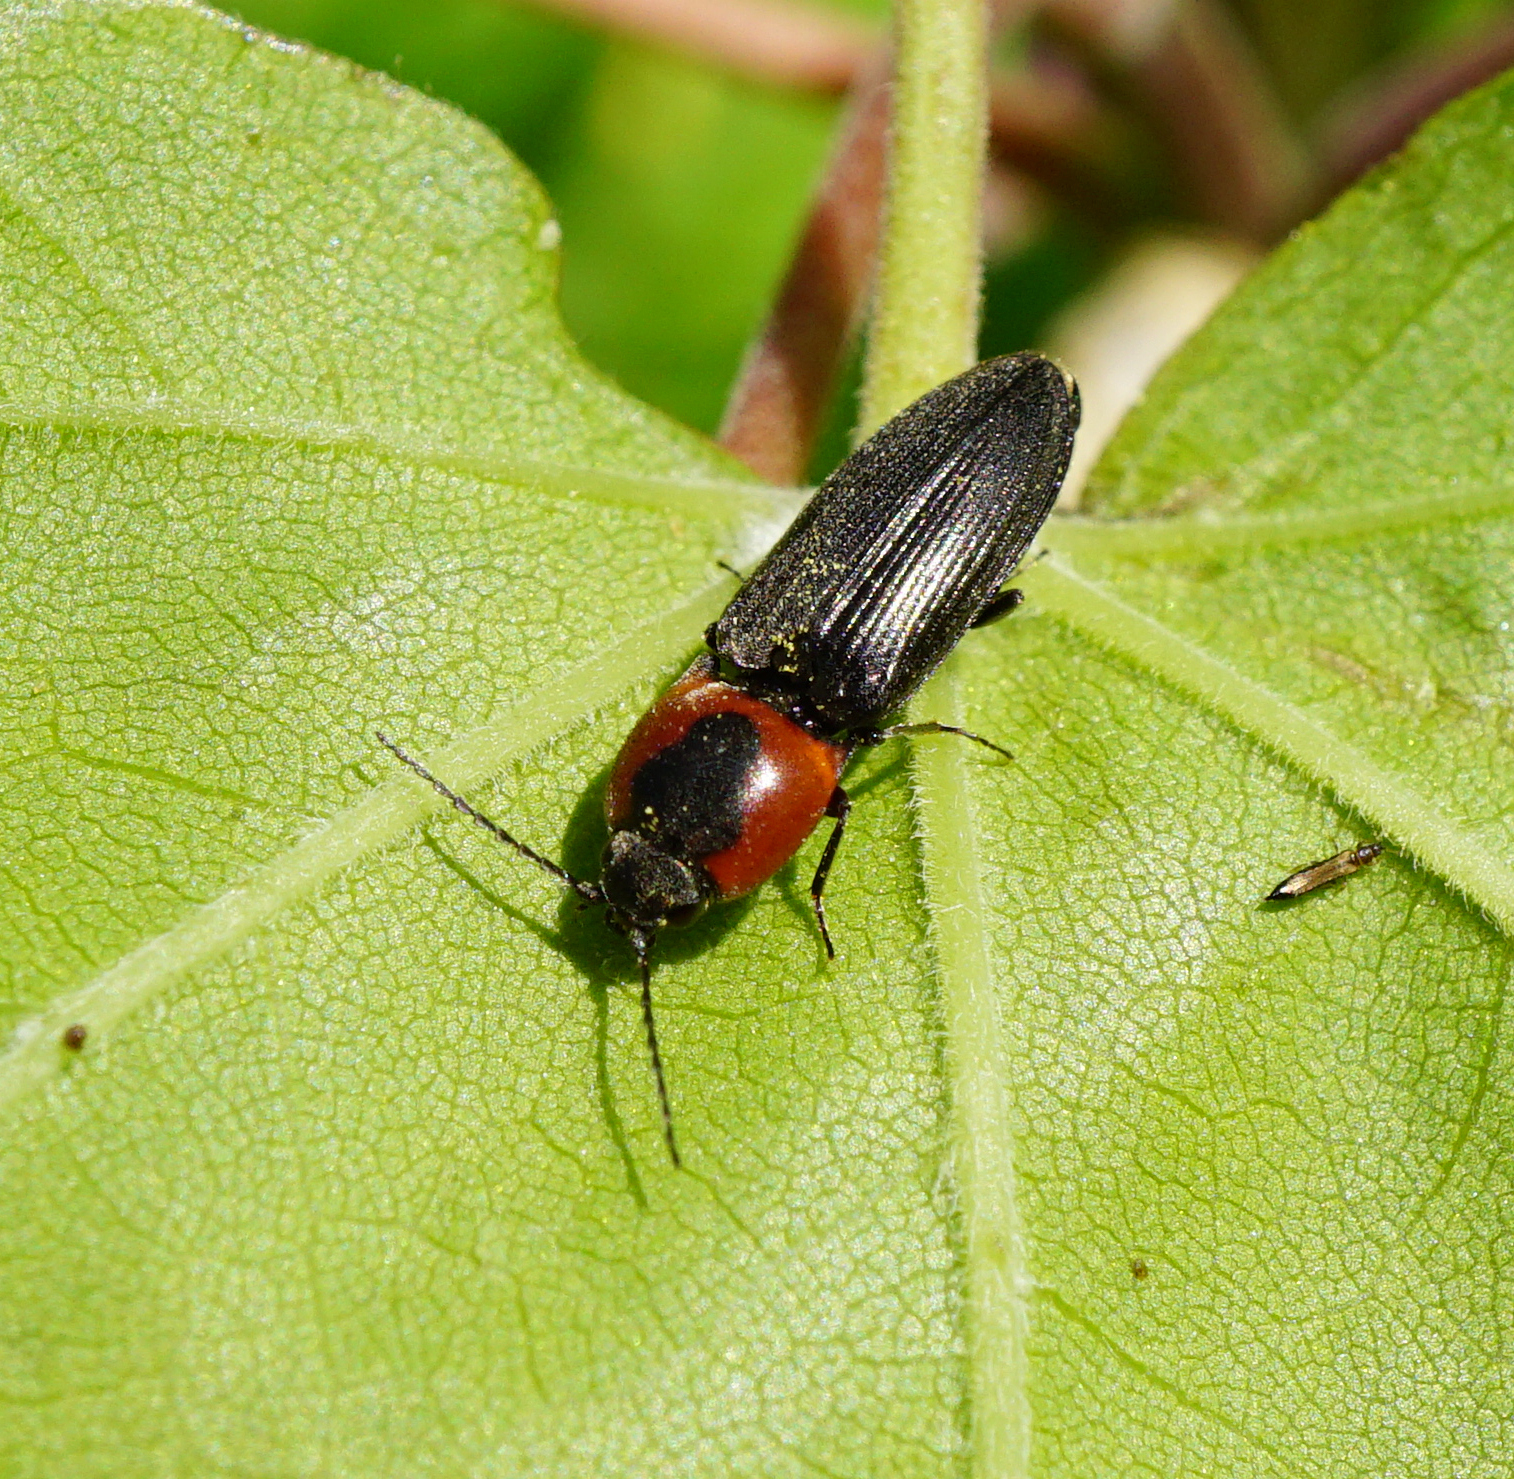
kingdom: Animalia
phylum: Arthropoda
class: Insecta
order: Coleoptera
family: Elateridae
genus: Cardiophorus
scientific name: Cardiophorus discicollis
